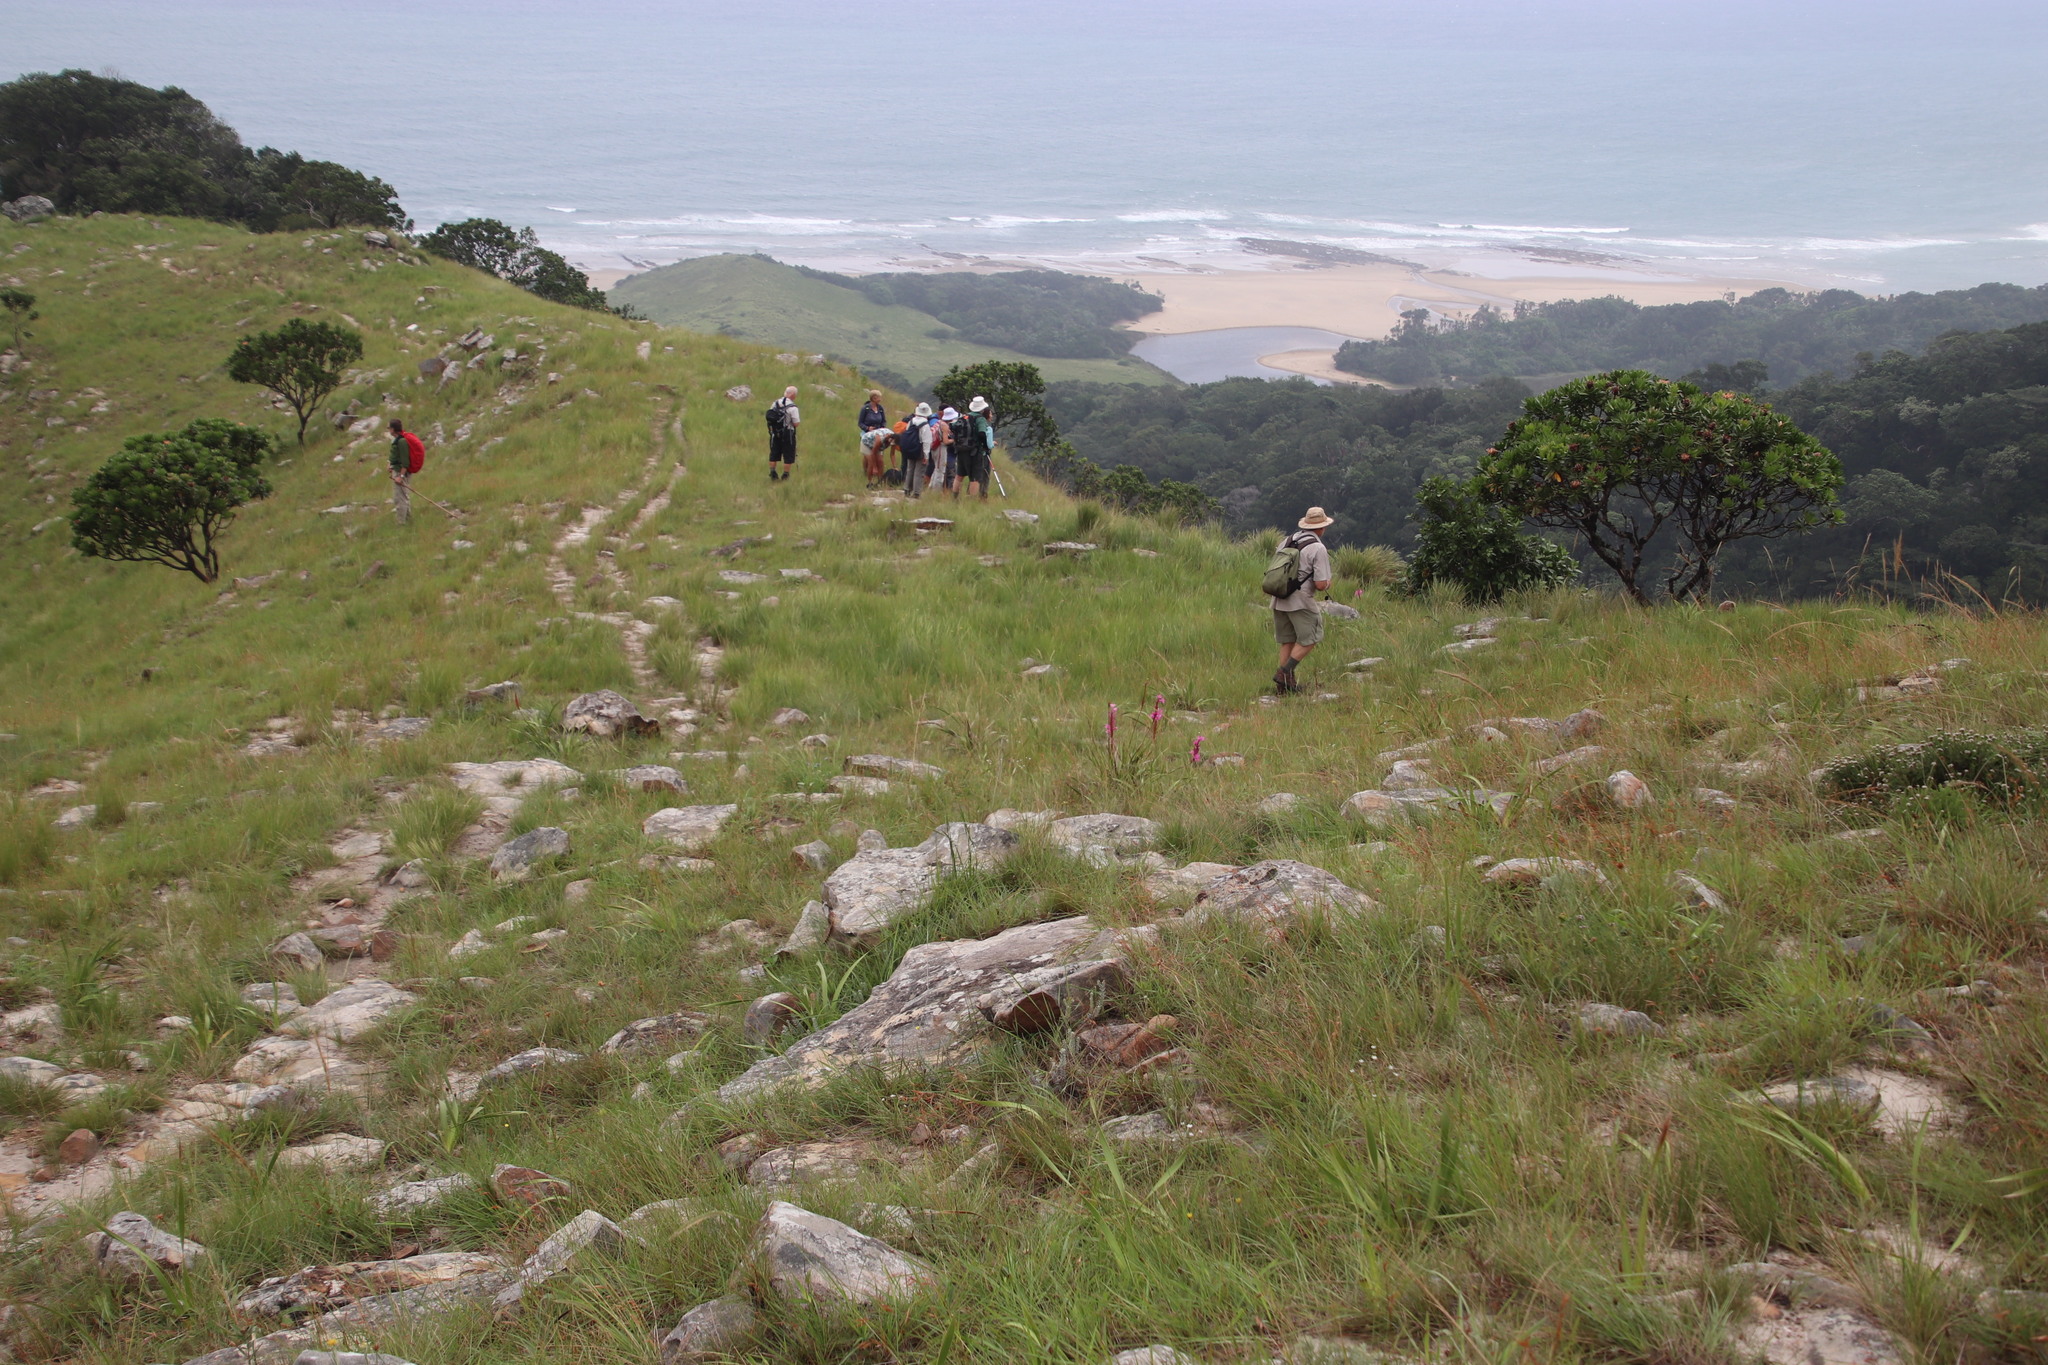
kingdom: Plantae
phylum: Tracheophyta
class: Magnoliopsida
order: Proteales
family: Proteaceae
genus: Protea
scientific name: Protea roupelliae
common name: Silver sugarbush
